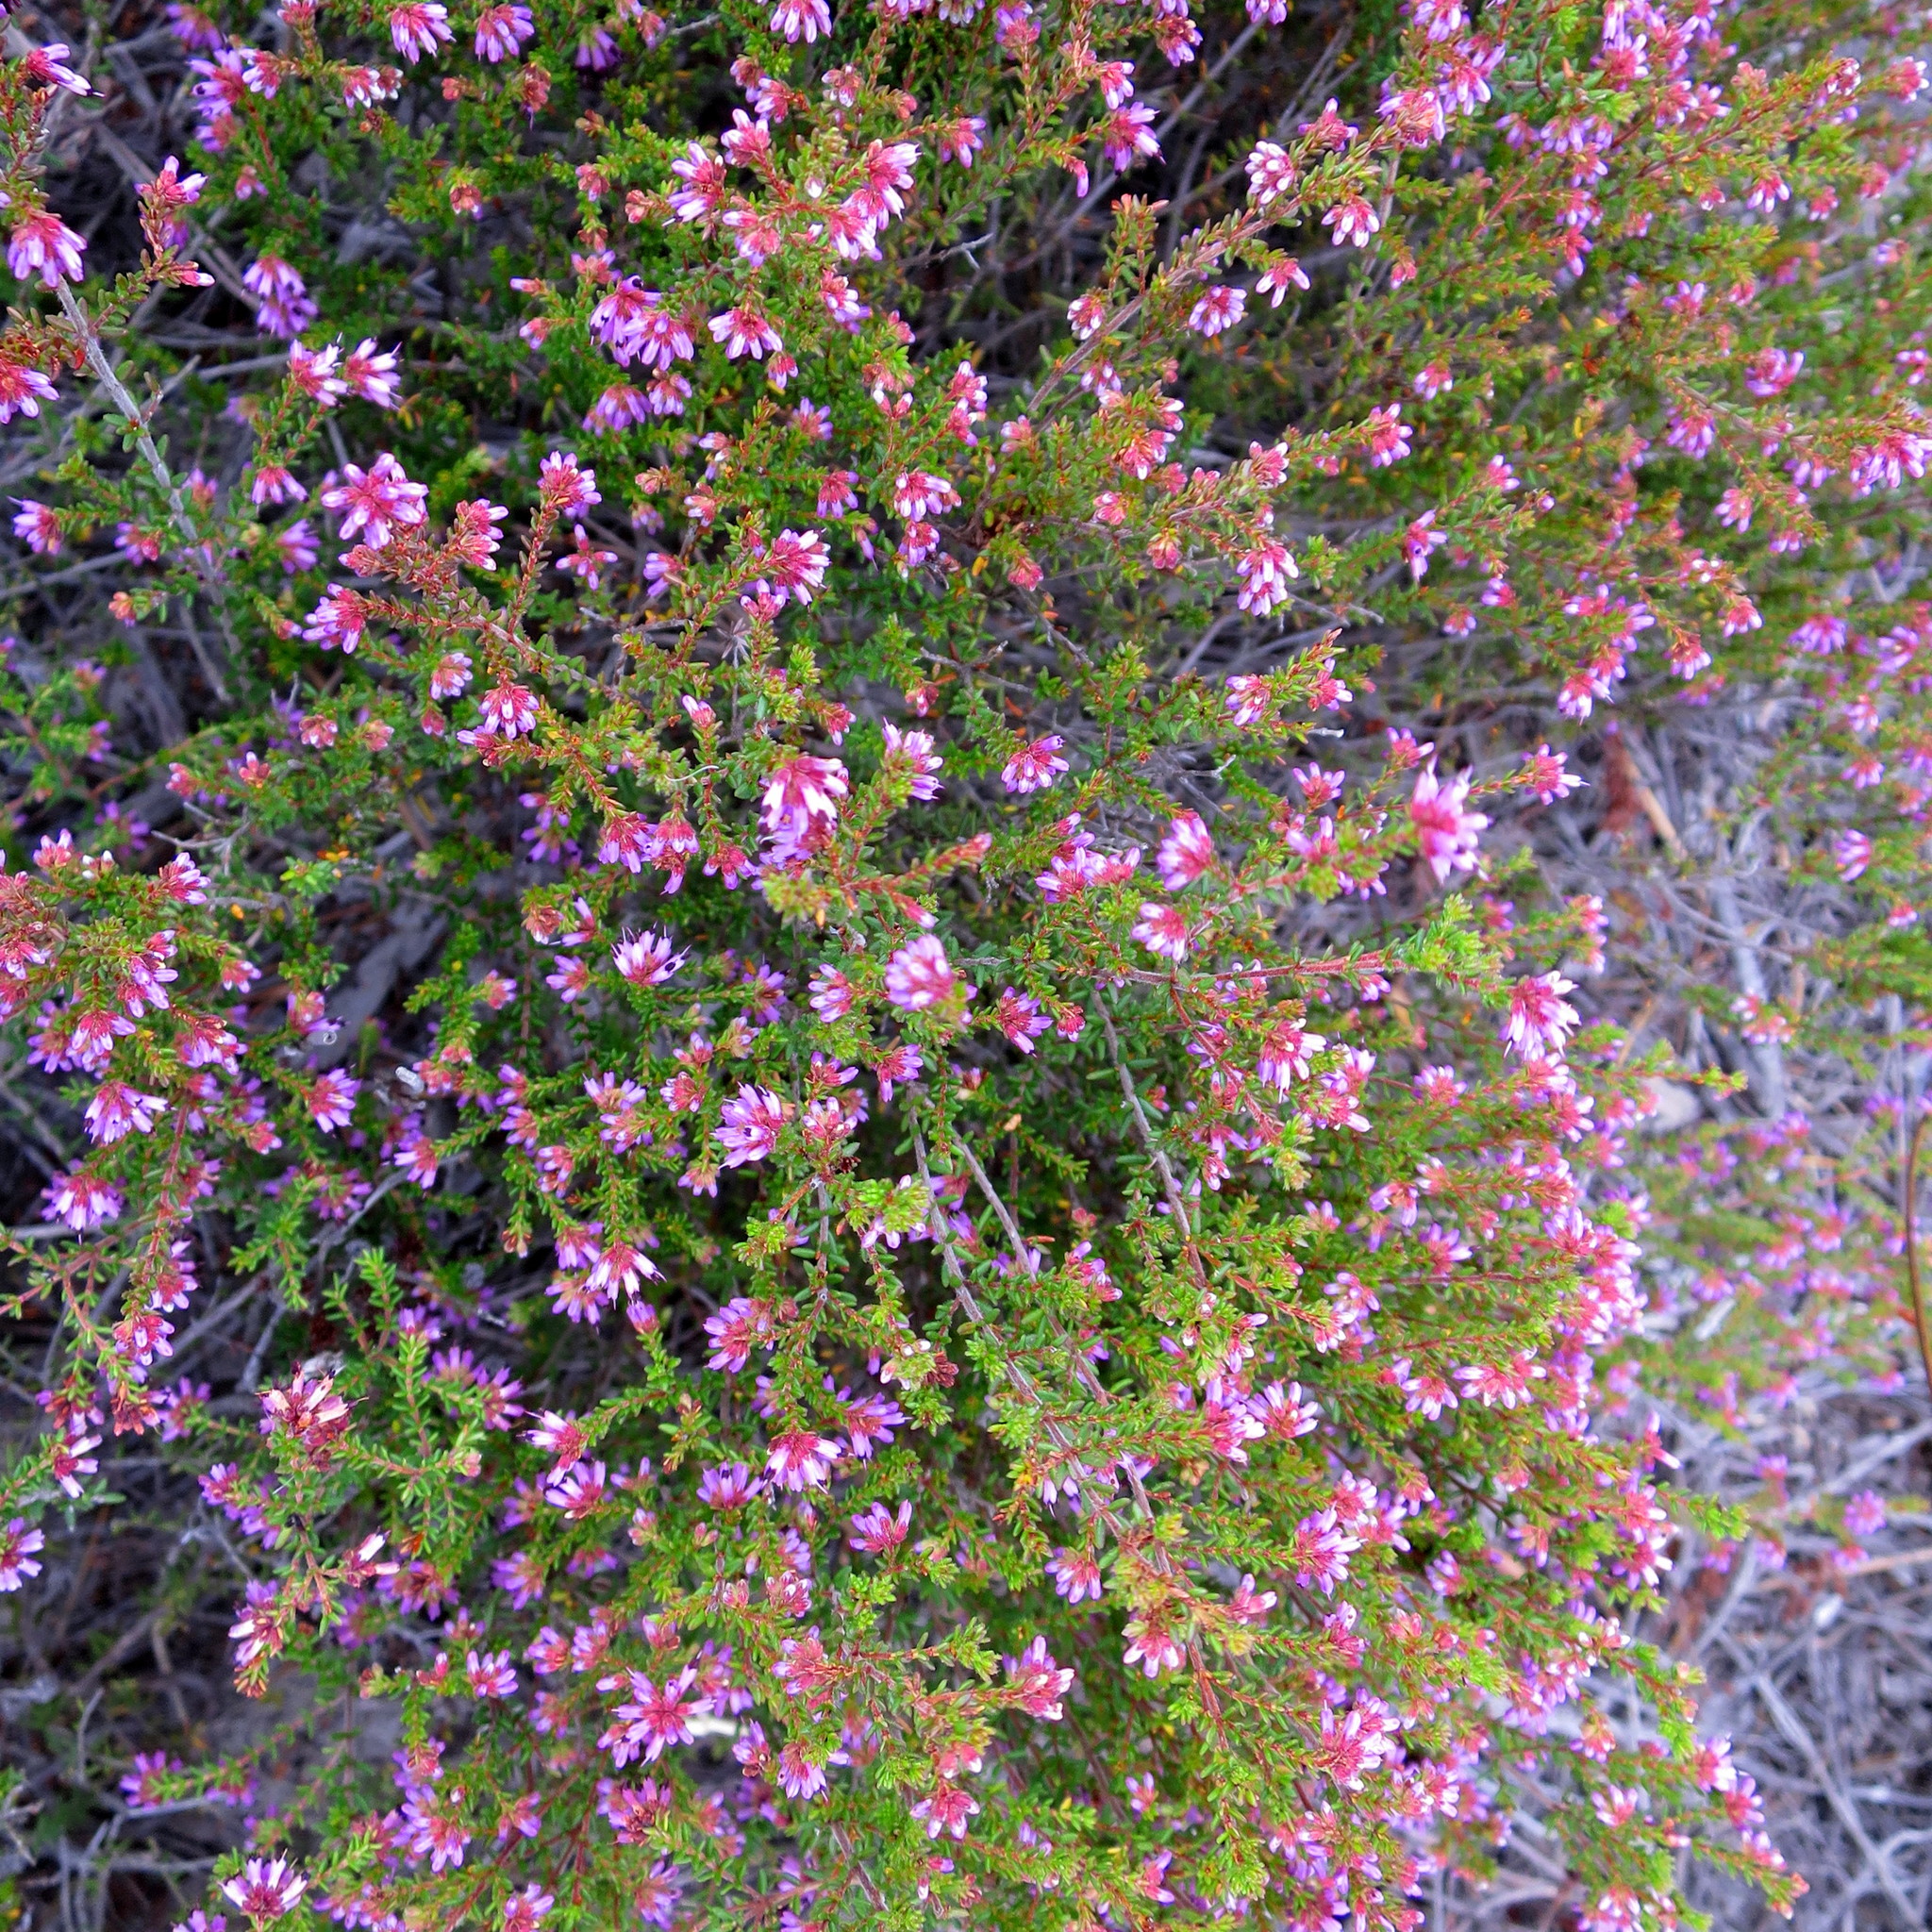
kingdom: Plantae
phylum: Tracheophyta
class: Magnoliopsida
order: Ericales
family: Ericaceae
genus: Erica
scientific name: Erica radicans
